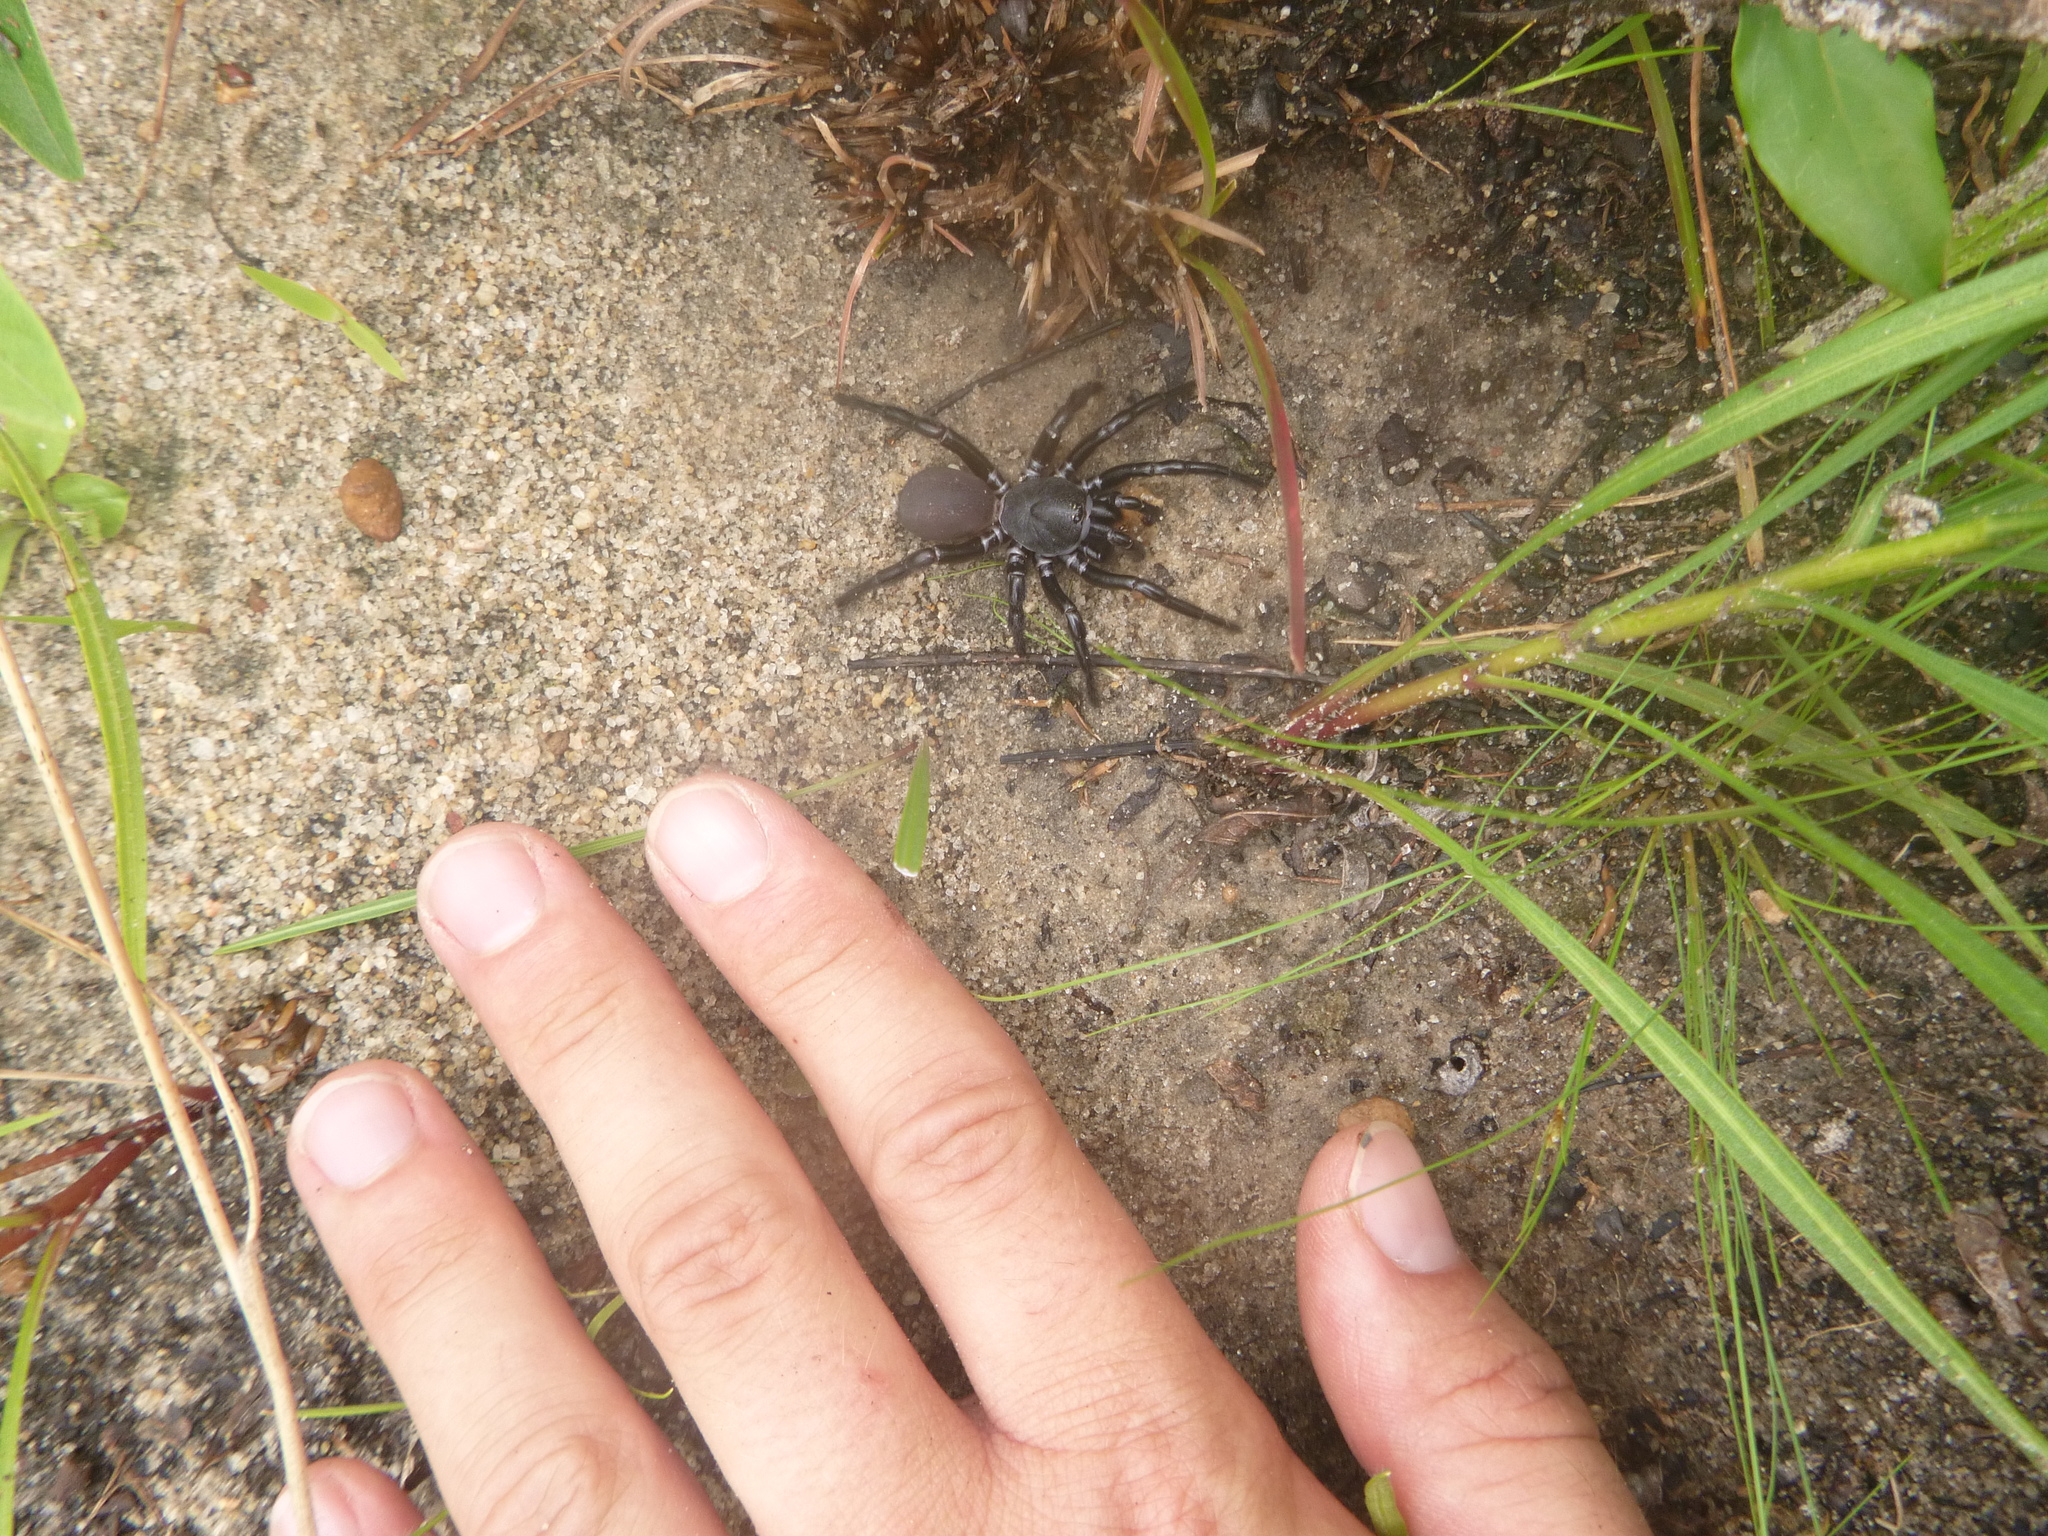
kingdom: Animalia
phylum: Arthropoda
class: Arachnida
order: Araneae
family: Halonoproctidae
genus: Ummidia
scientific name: Ummidia audouini
